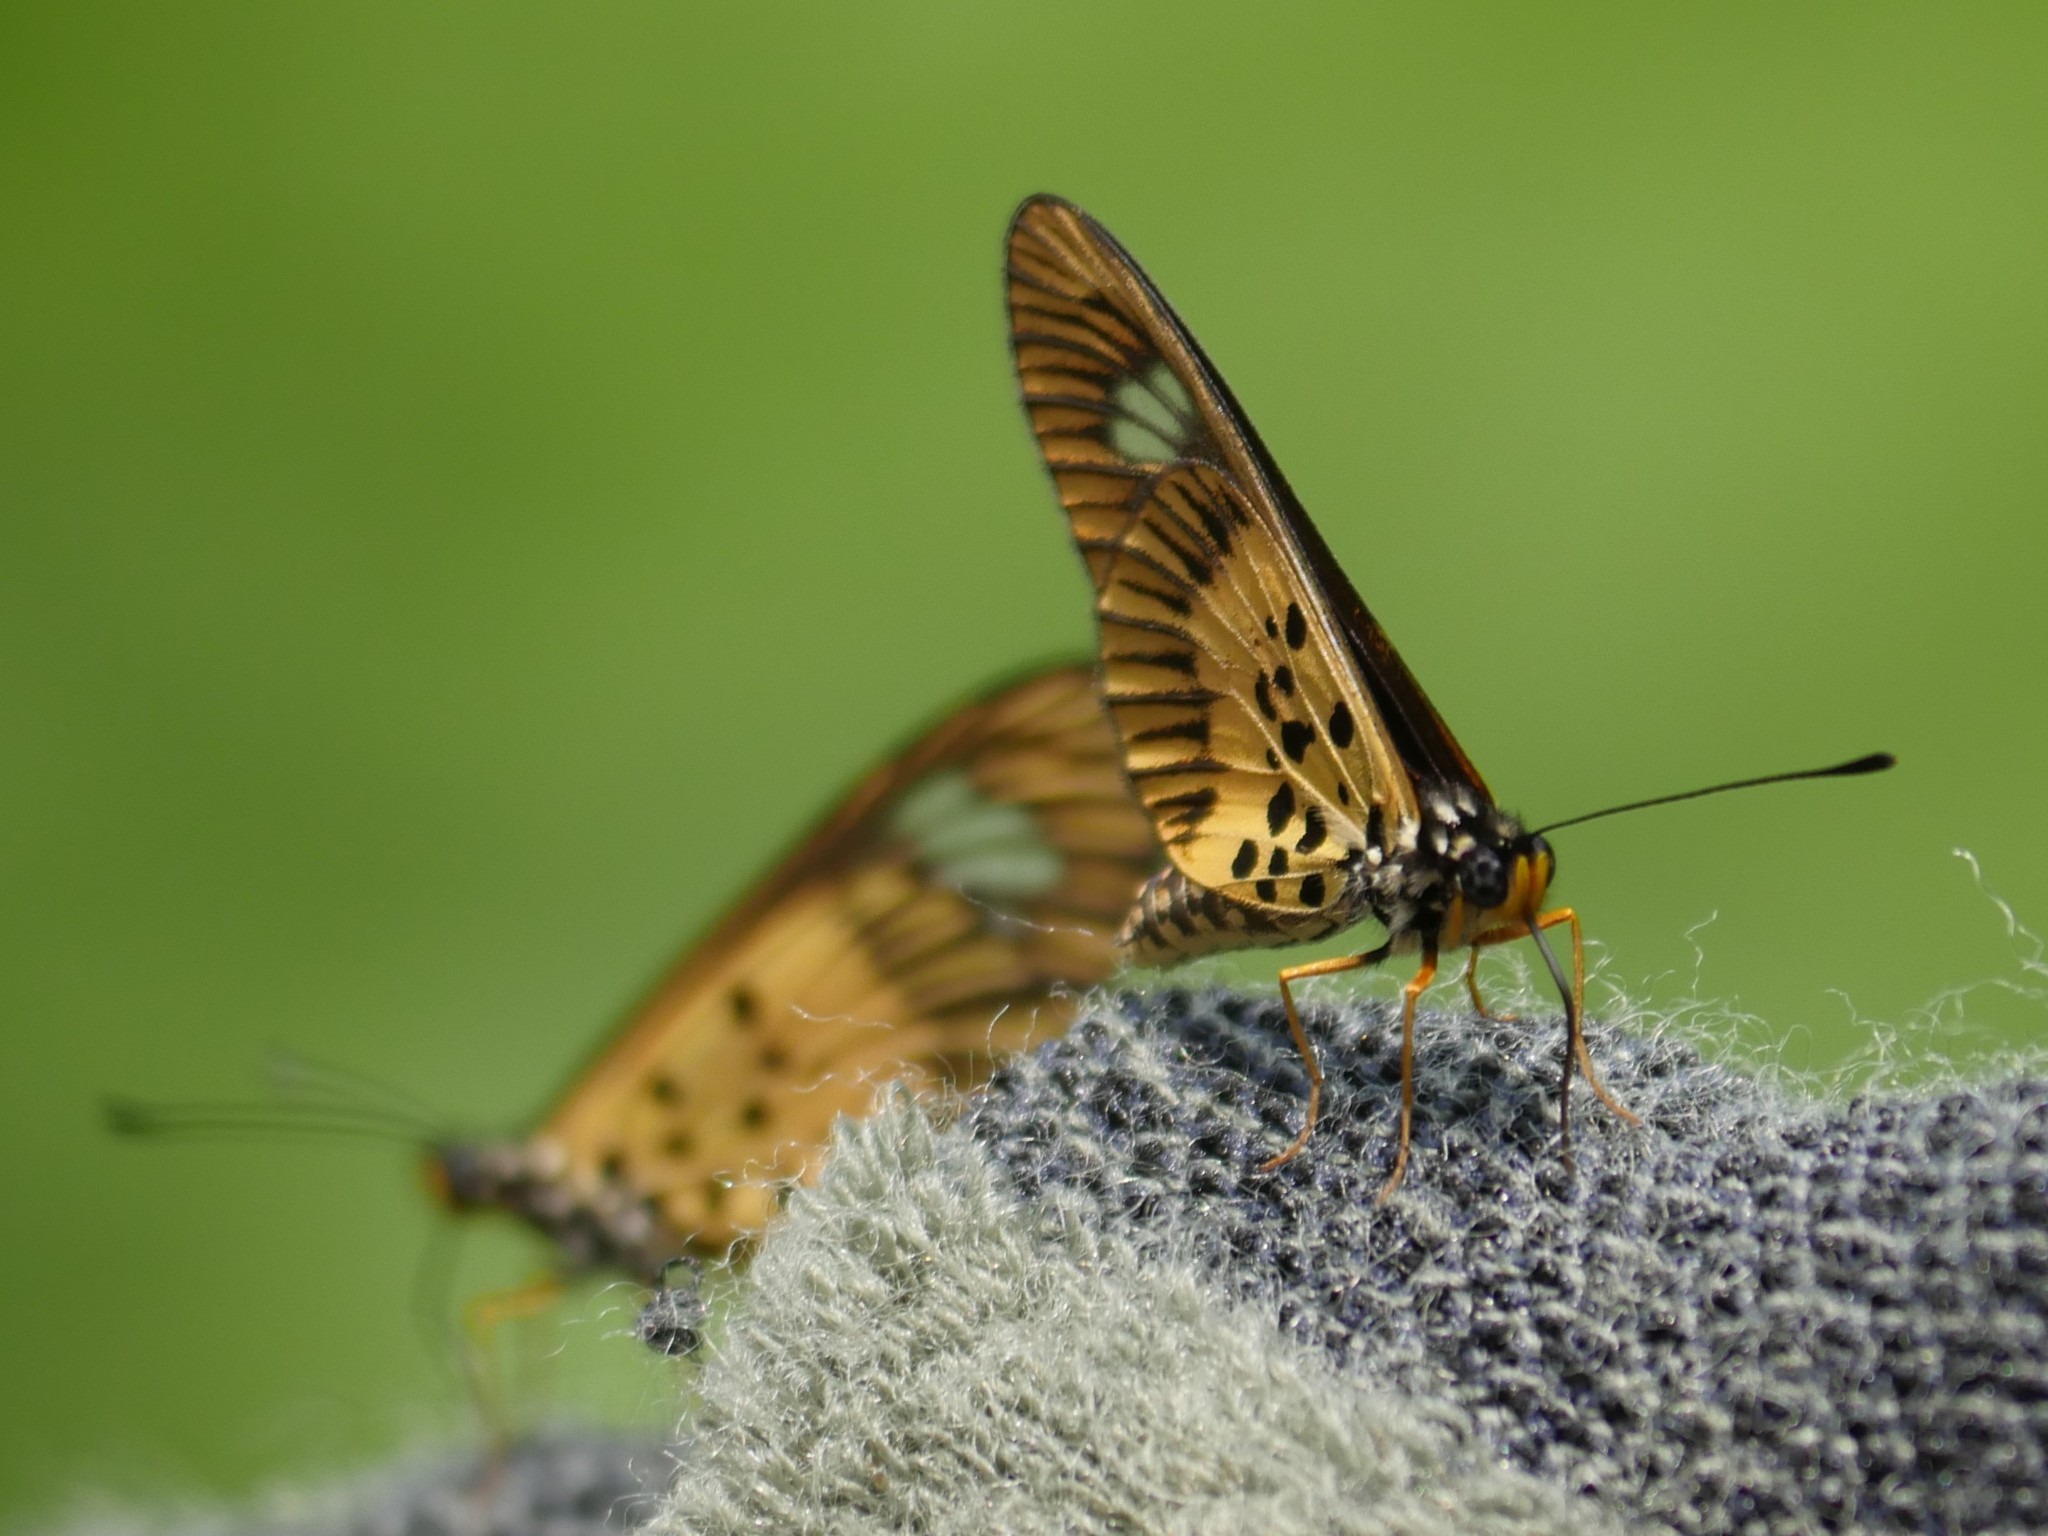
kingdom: Animalia
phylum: Arthropoda
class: Insecta
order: Lepidoptera
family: Nymphalidae
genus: Acraea
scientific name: Acraea
